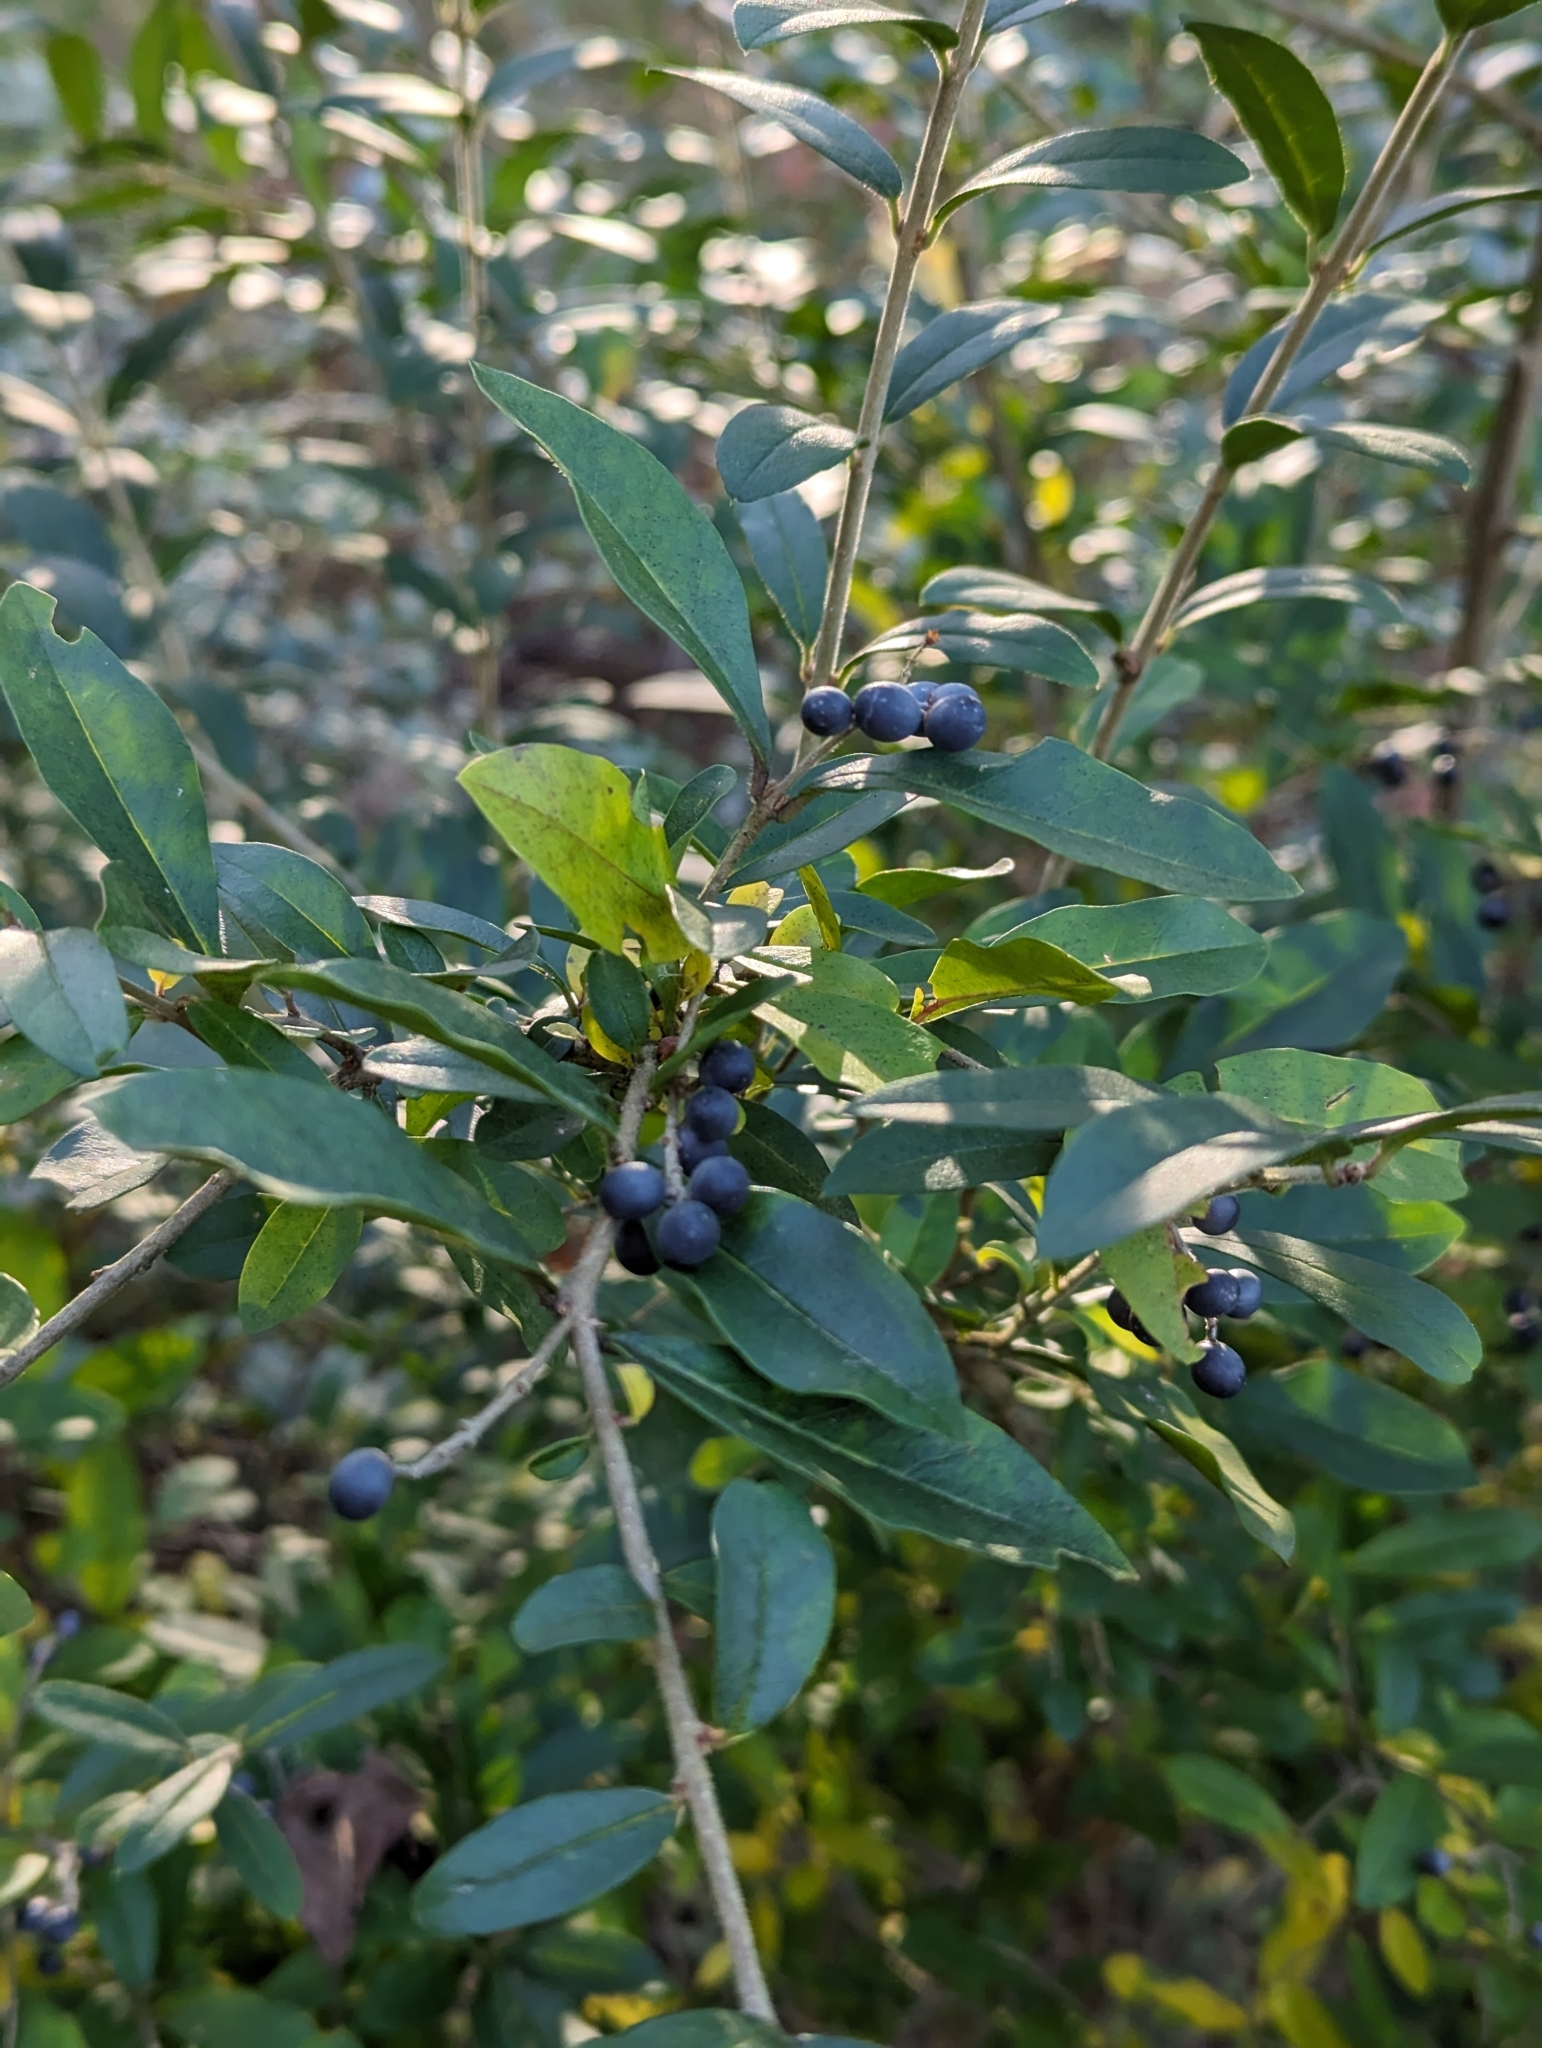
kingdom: Plantae
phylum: Tracheophyta
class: Magnoliopsida
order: Lamiales
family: Oleaceae
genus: Ligustrum
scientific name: Ligustrum obtusifolium
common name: Border privet
